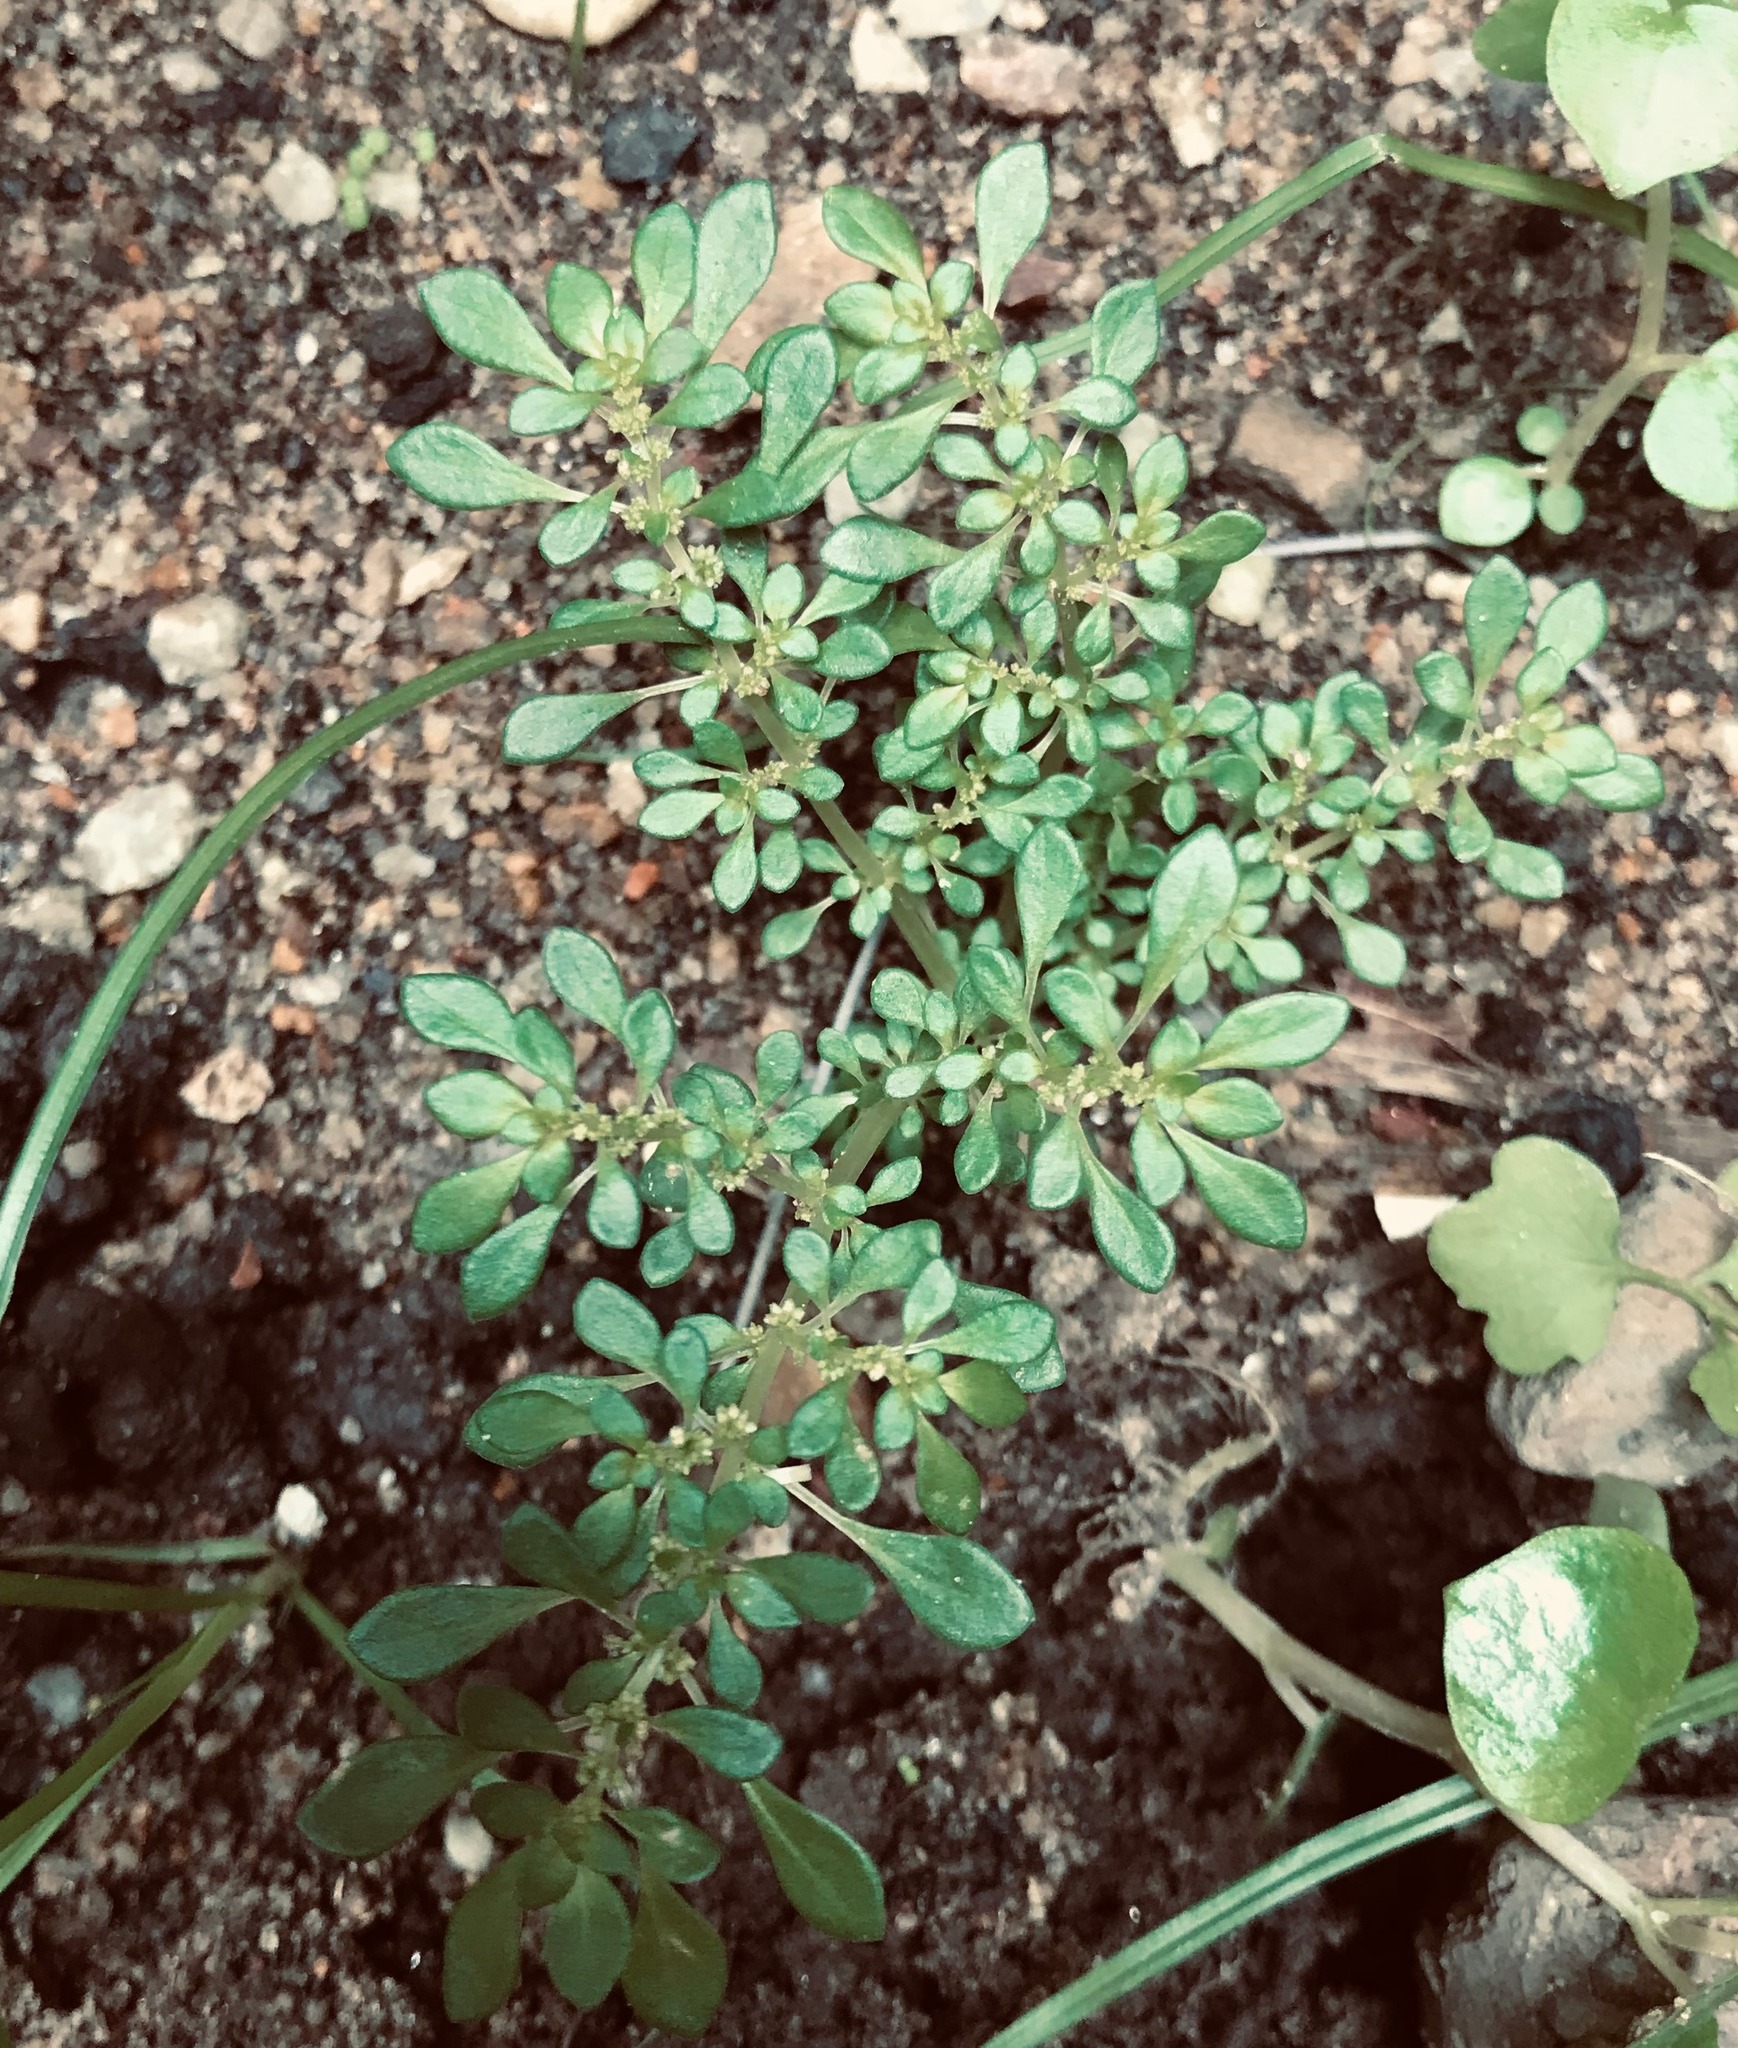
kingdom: Plantae
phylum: Tracheophyta
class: Magnoliopsida
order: Rosales
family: Urticaceae
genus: Pilea
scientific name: Pilea microphylla
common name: Artillery-plant
